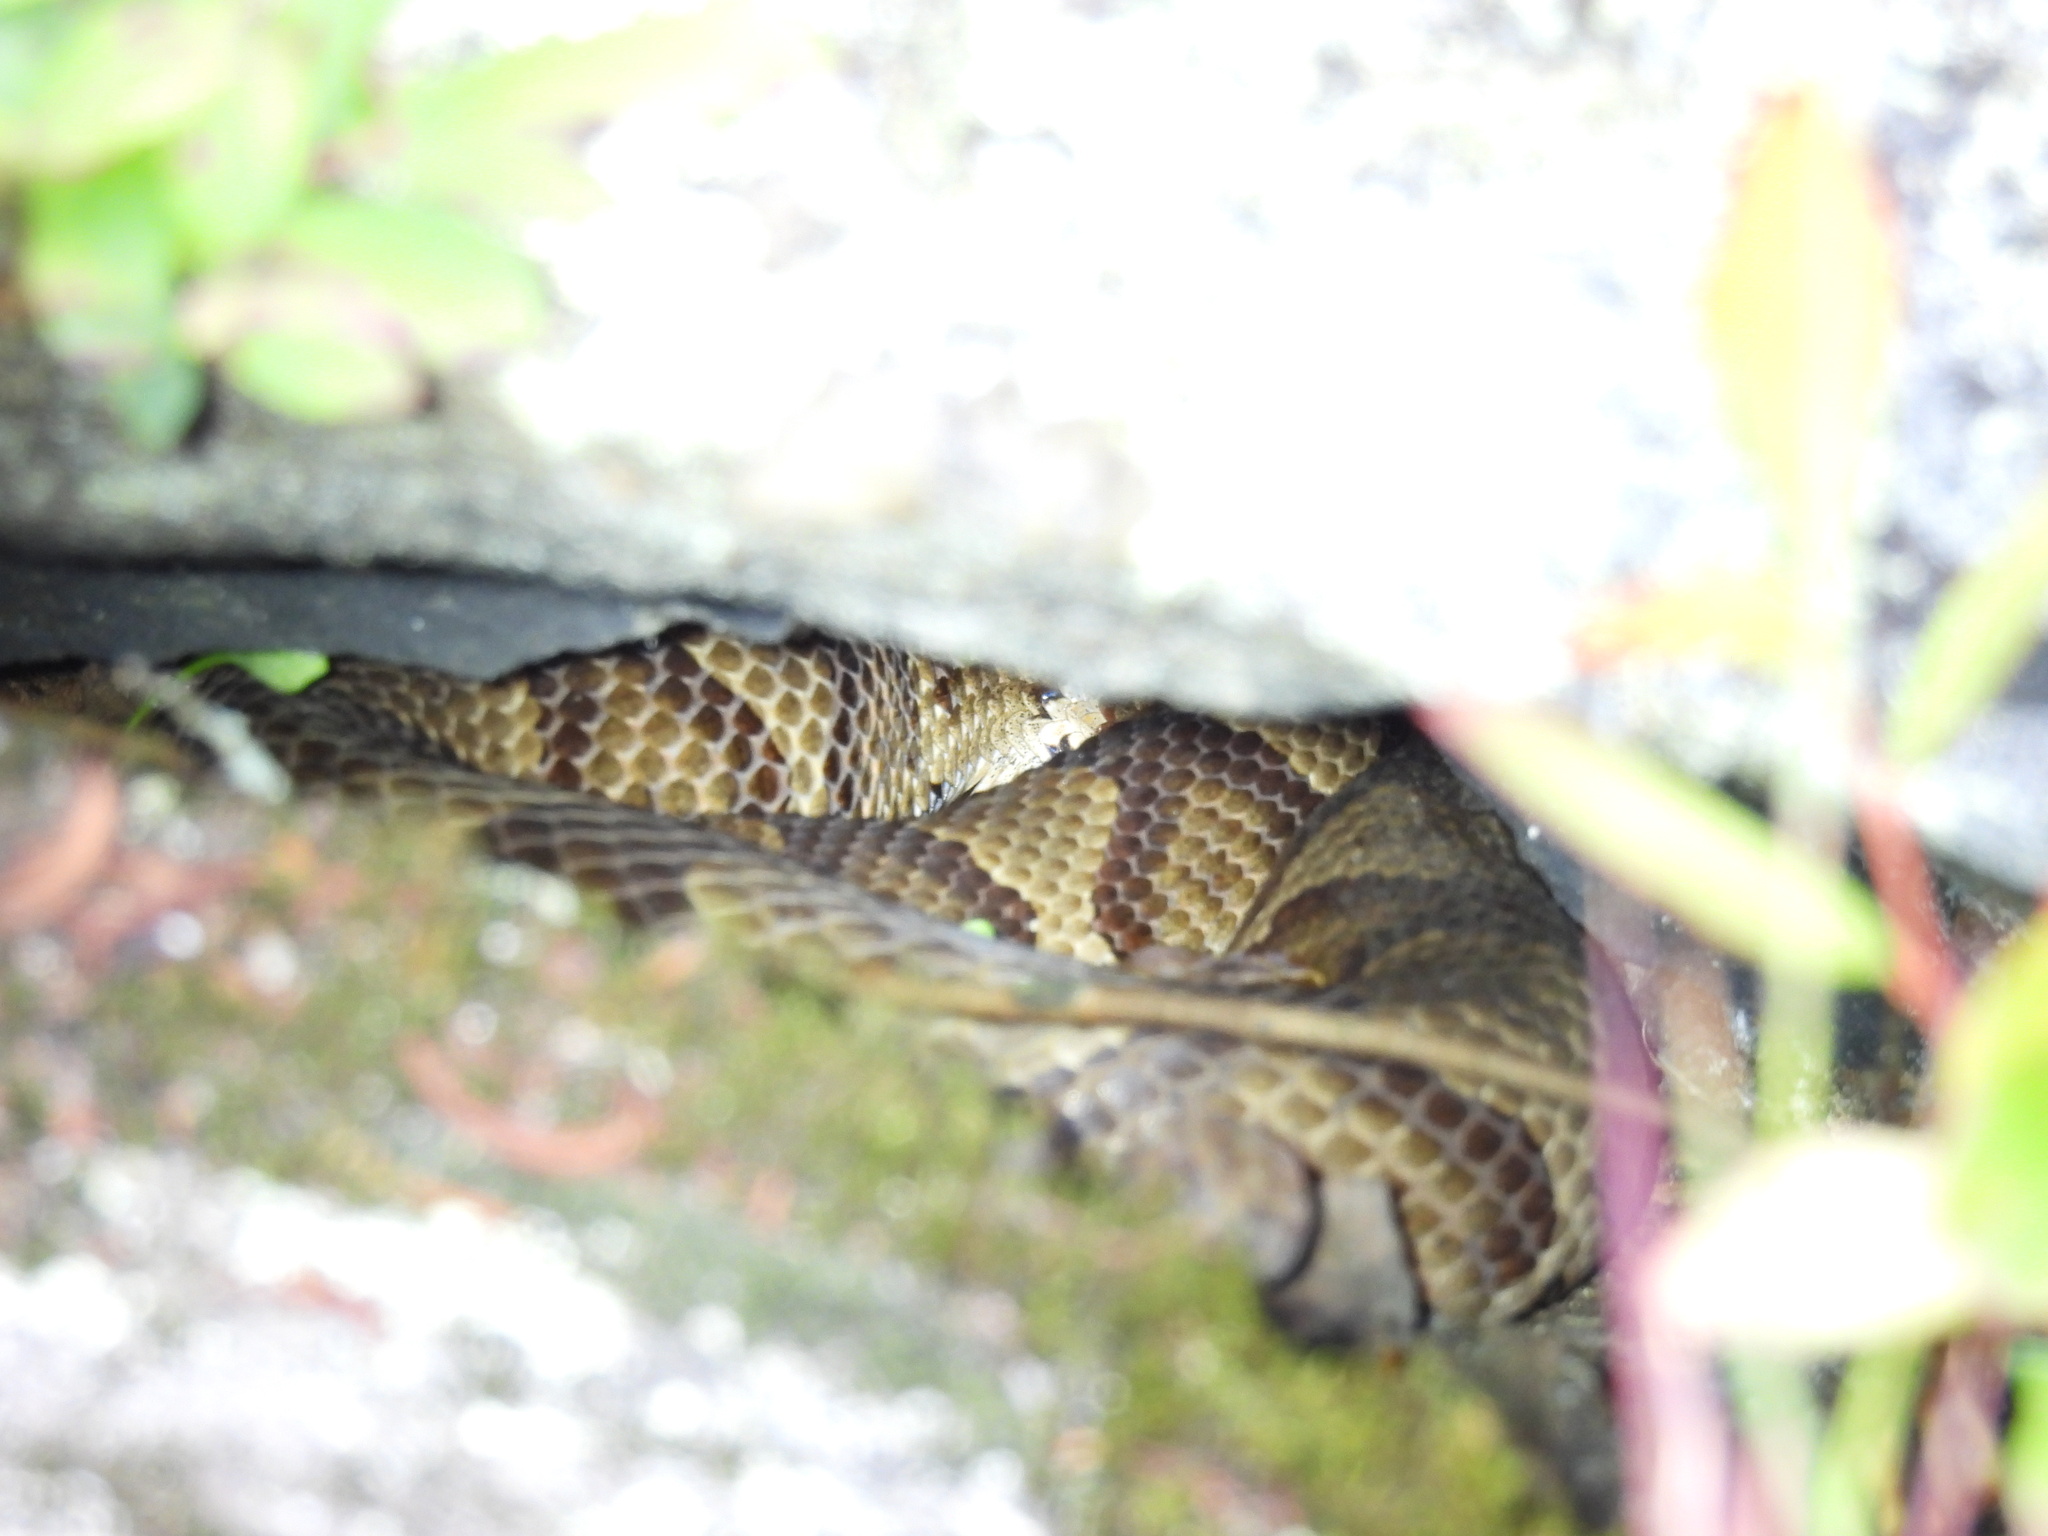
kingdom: Animalia
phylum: Chordata
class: Squamata
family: Viperidae
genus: Agkistrodon
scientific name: Agkistrodon contortrix
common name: Northern copperhead
